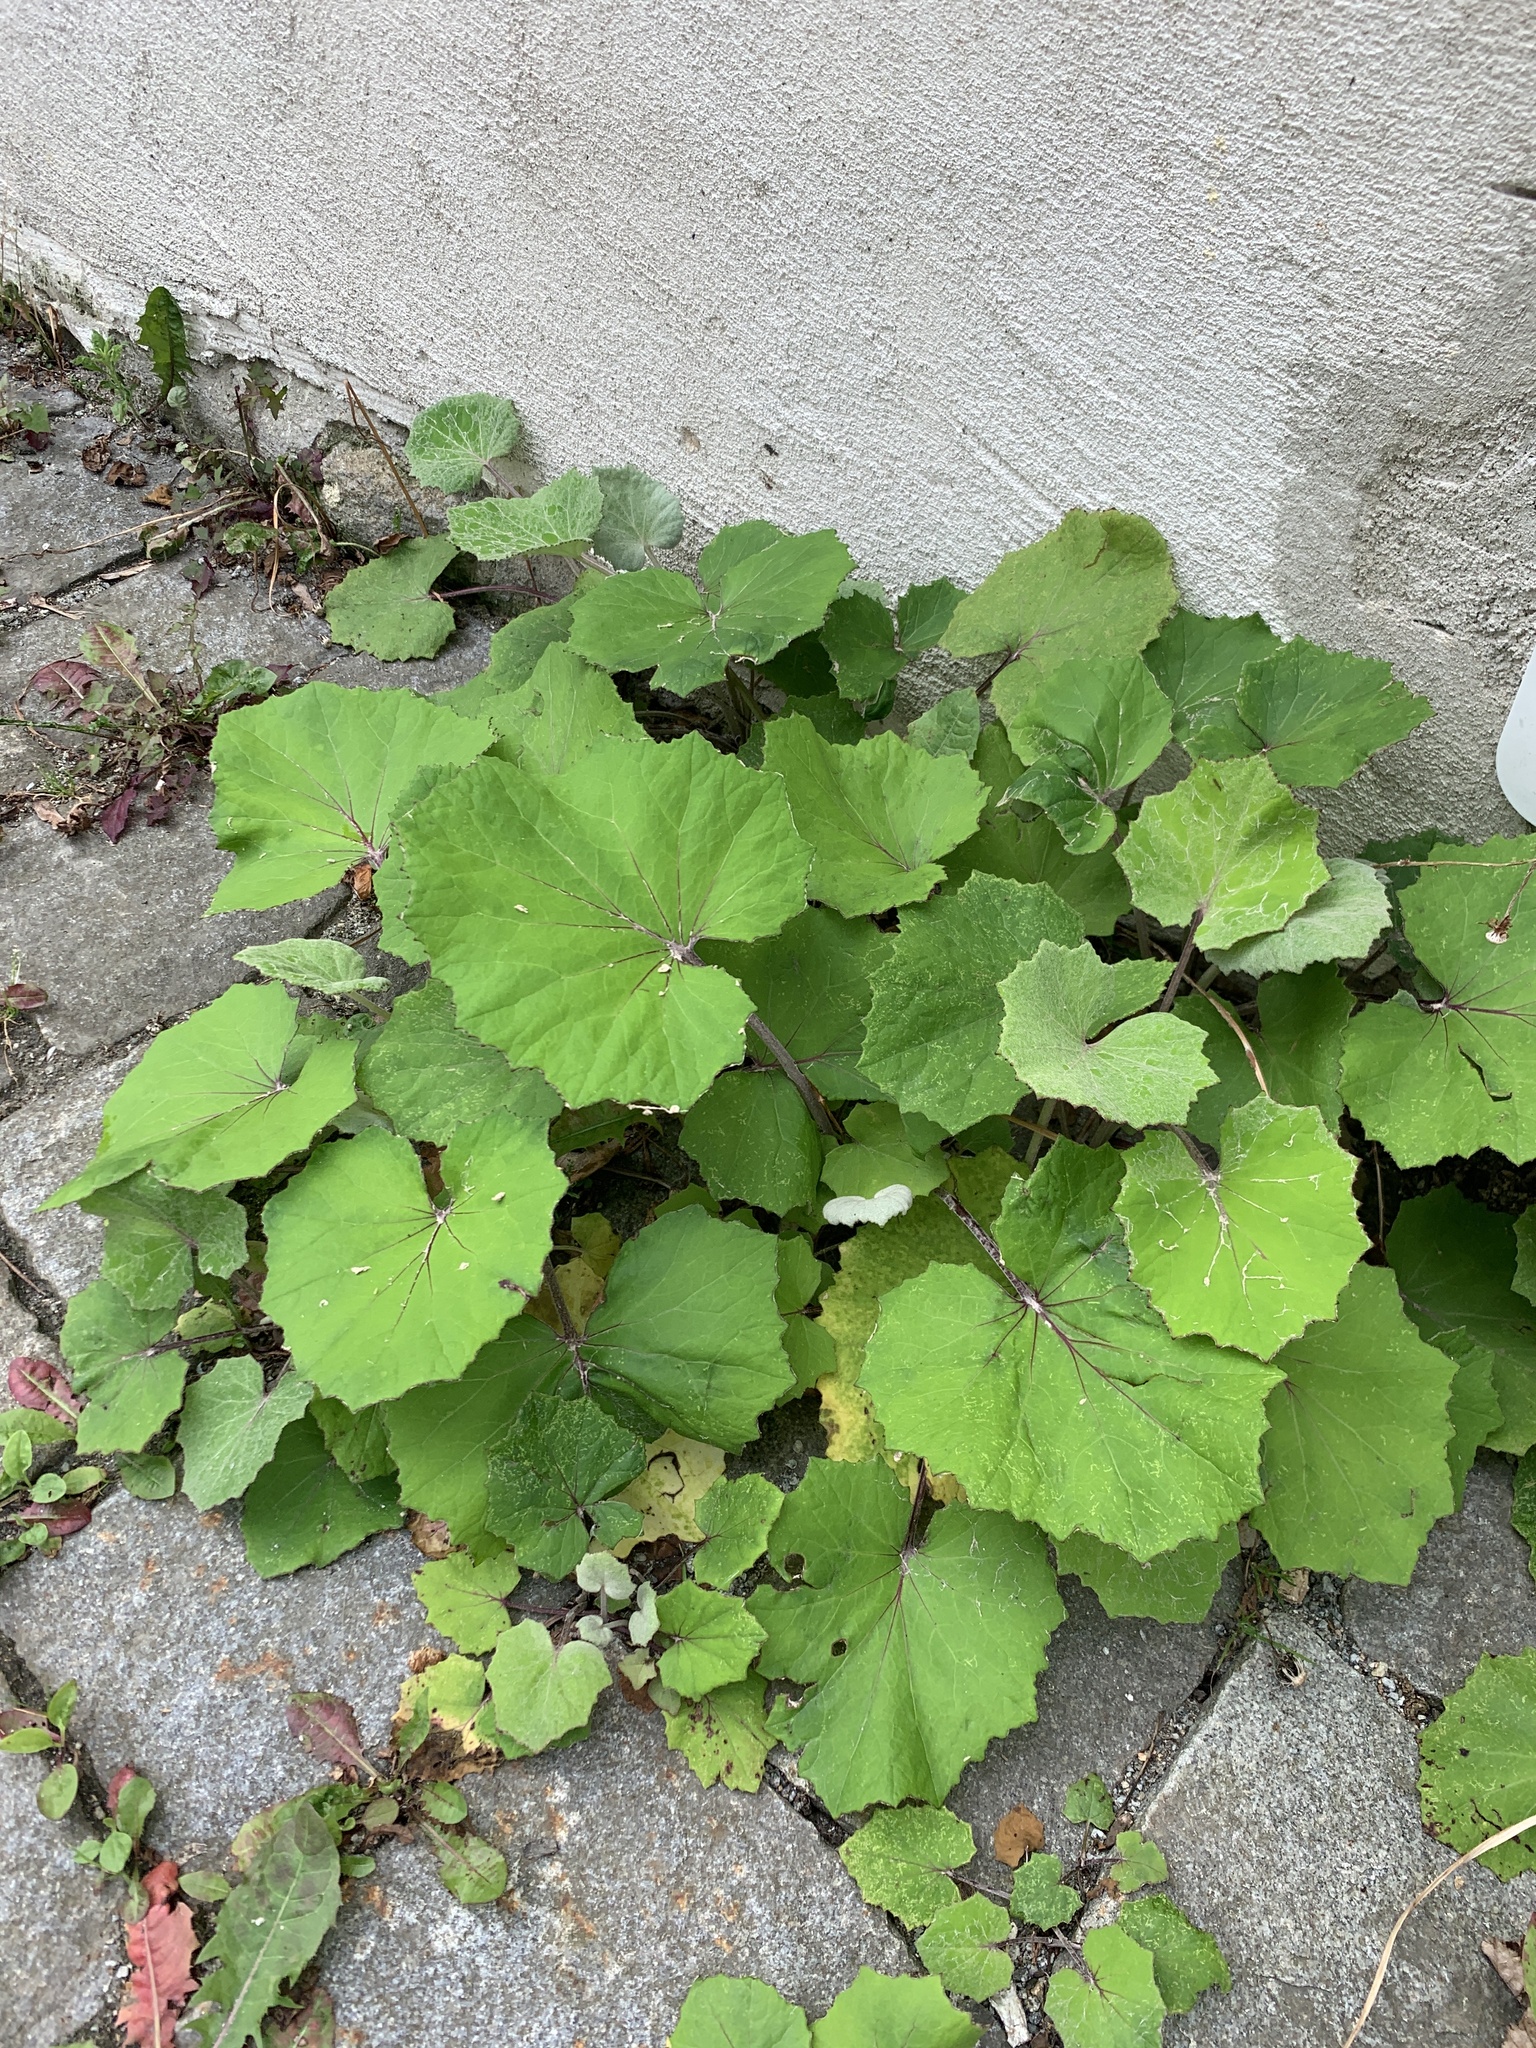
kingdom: Plantae
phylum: Tracheophyta
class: Magnoliopsida
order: Asterales
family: Asteraceae
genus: Tussilago
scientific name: Tussilago farfara
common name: Coltsfoot
